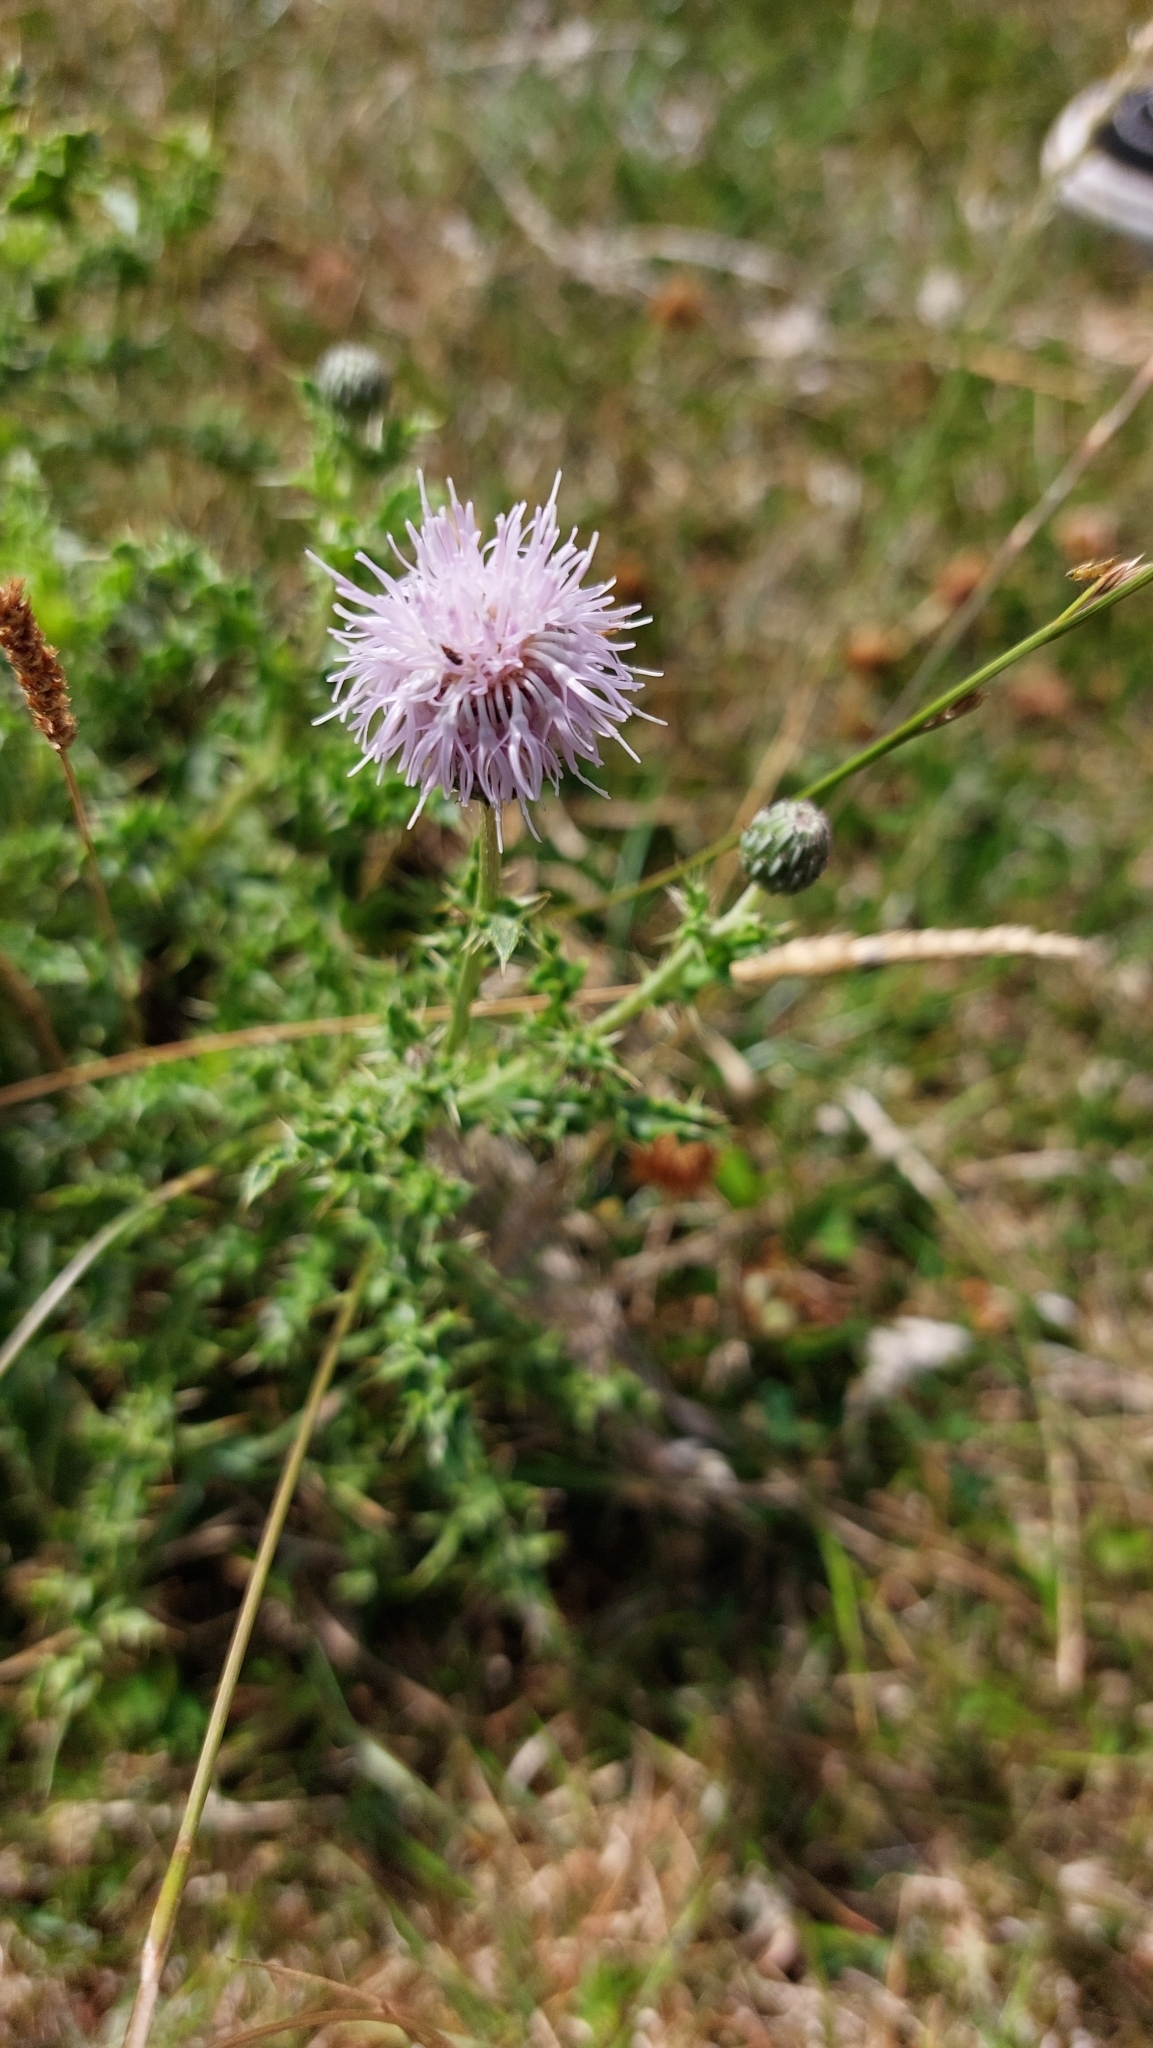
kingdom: Plantae
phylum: Tracheophyta
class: Magnoliopsida
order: Asterales
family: Asteraceae
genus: Cirsium
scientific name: Cirsium arvense
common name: Creeping thistle
